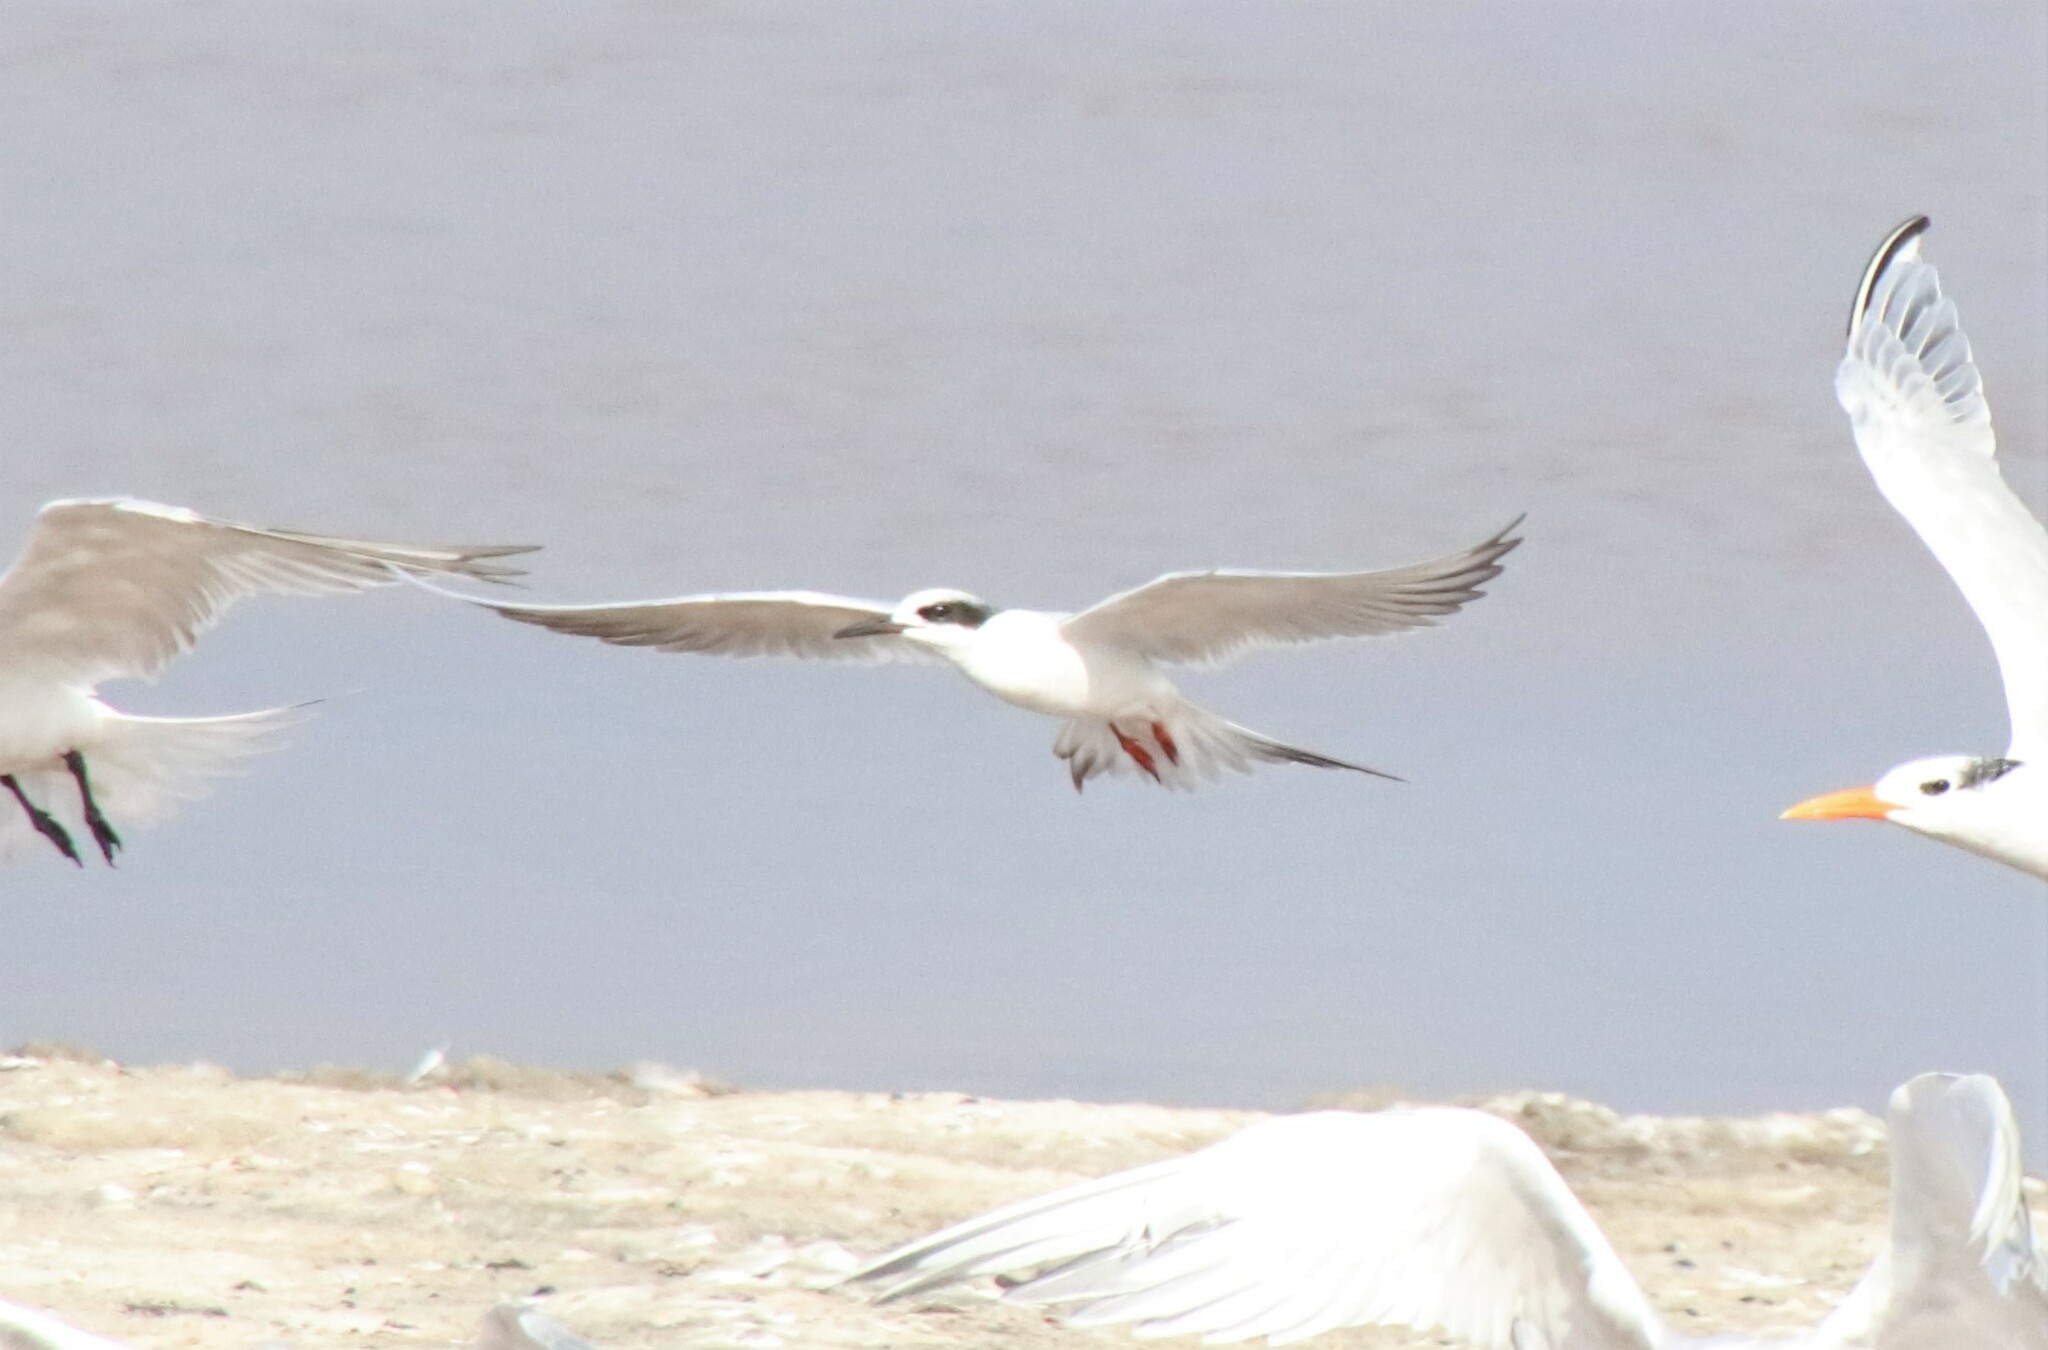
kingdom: Animalia
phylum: Chordata
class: Aves
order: Charadriiformes
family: Laridae
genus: Sterna
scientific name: Sterna forsteri
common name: Forster's tern
